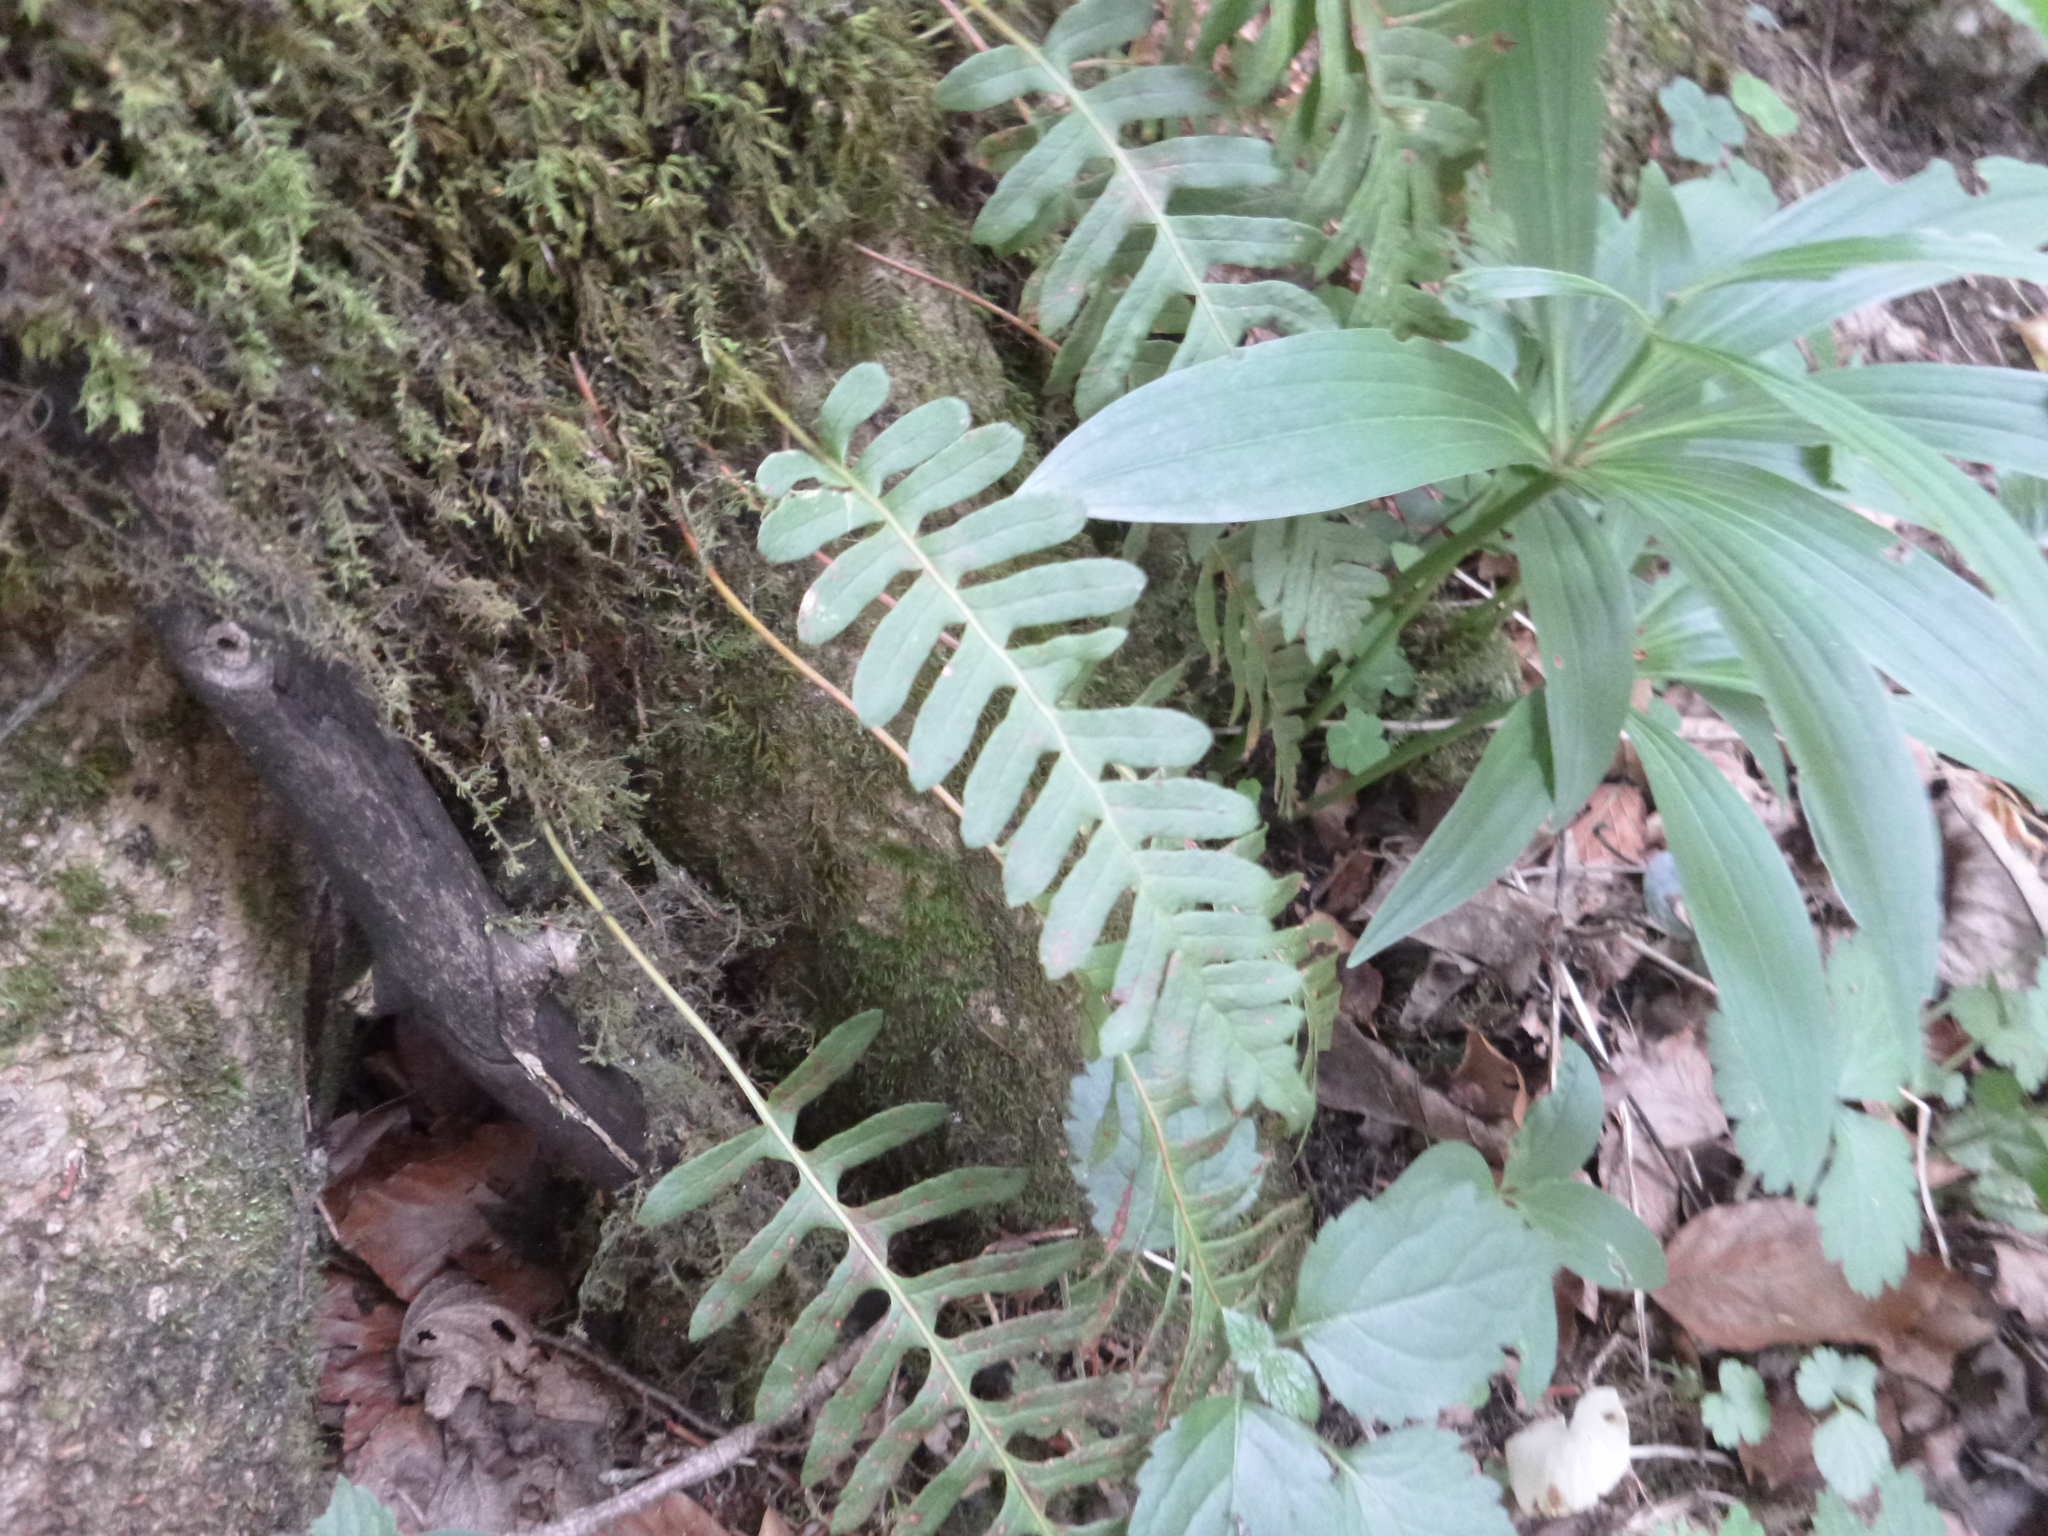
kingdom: Plantae
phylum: Tracheophyta
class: Polypodiopsida
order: Polypodiales
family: Polypodiaceae
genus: Polypodium
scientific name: Polypodium vulgare
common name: Common polypody
